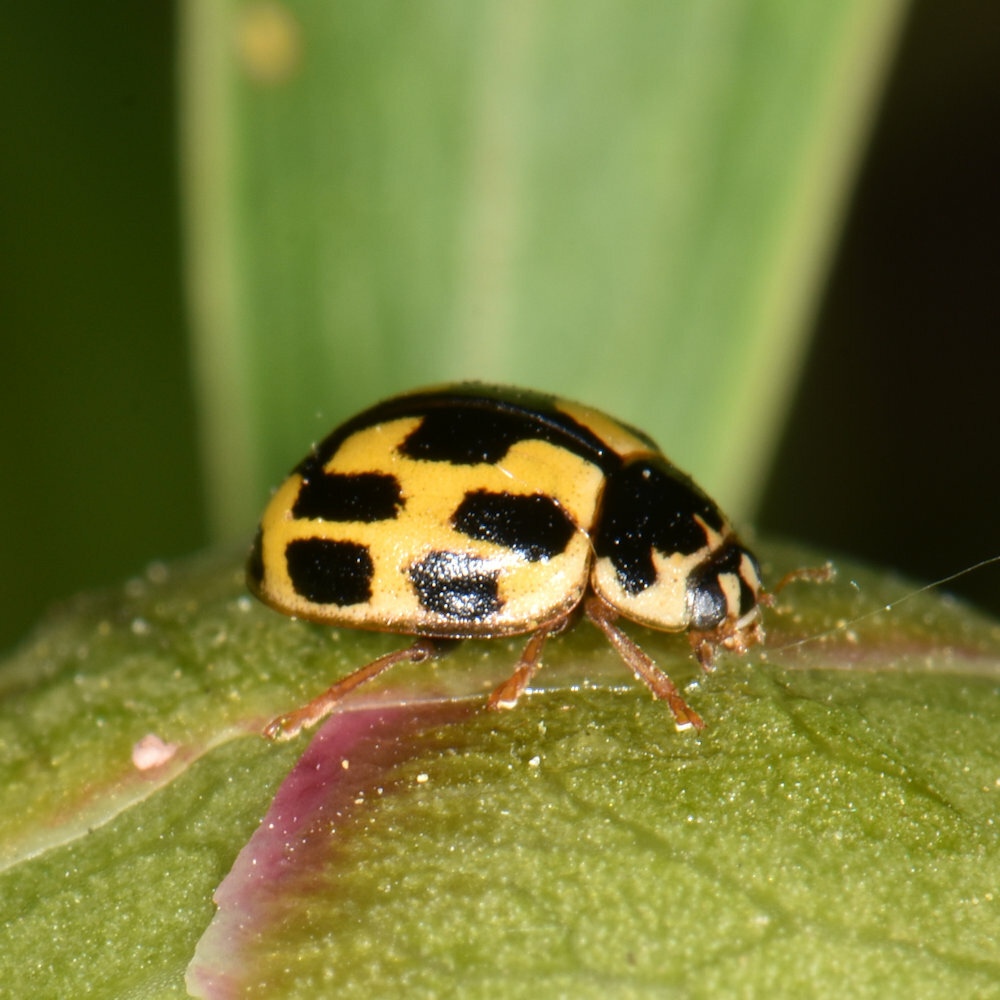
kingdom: Animalia
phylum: Arthropoda
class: Insecta
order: Coleoptera
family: Coccinellidae
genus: Propylaea
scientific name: Propylaea quatuordecimpunctata
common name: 14-spotted ladybird beetle
